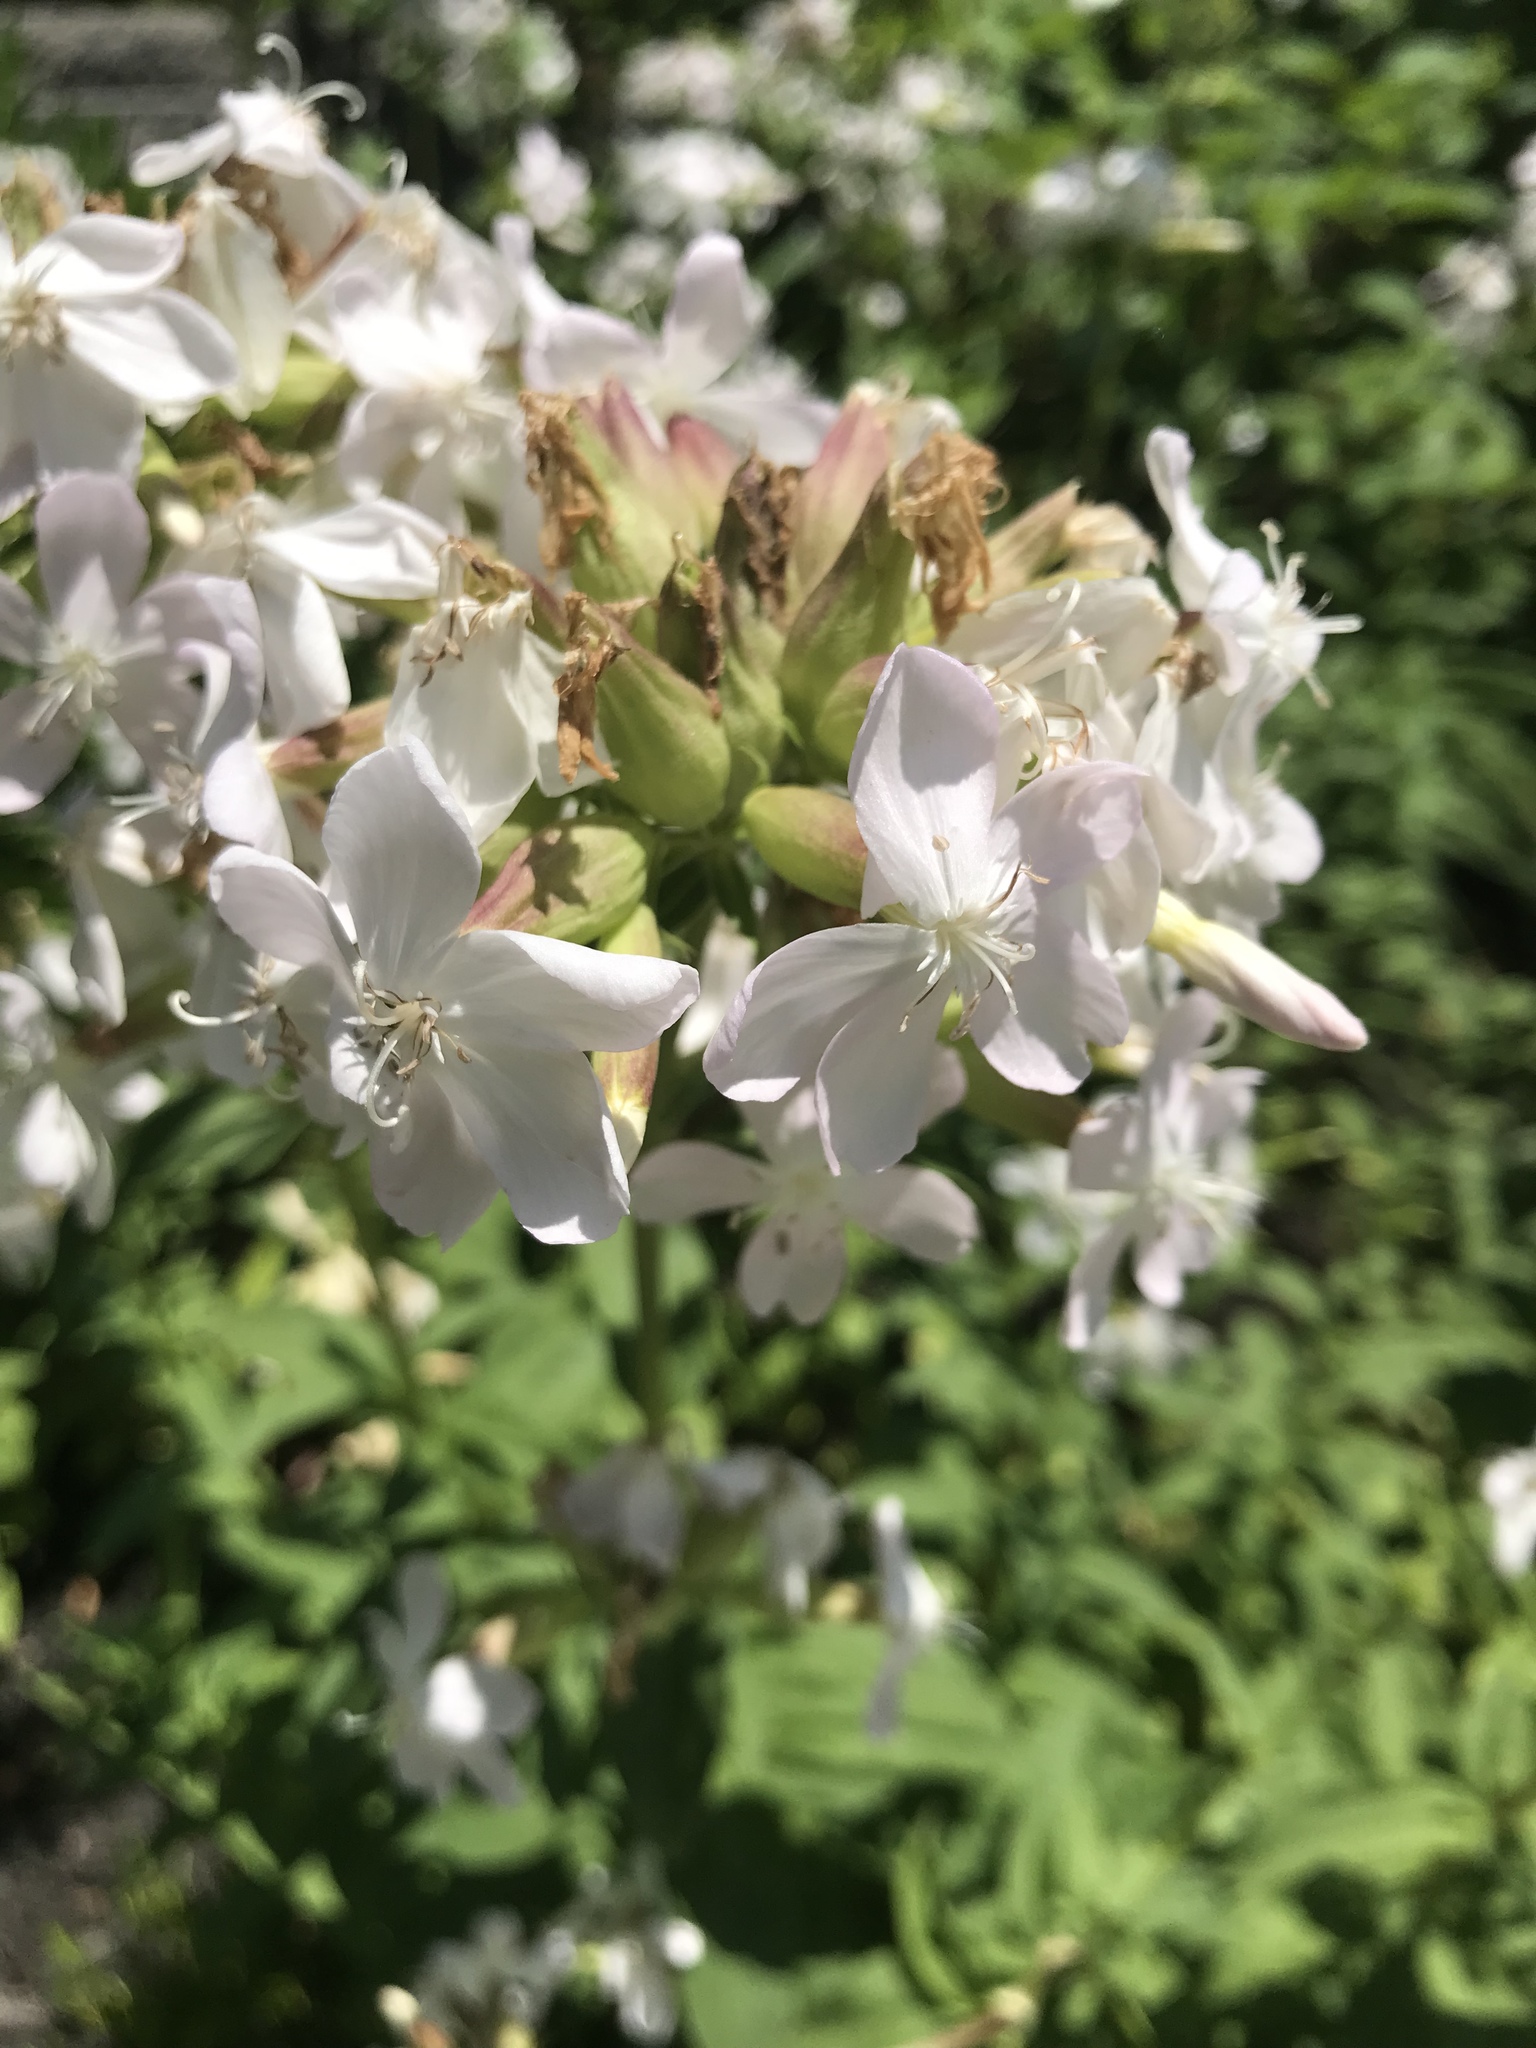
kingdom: Plantae
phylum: Tracheophyta
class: Magnoliopsida
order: Caryophyllales
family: Caryophyllaceae
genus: Saponaria
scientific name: Saponaria officinalis
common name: Soapwort
